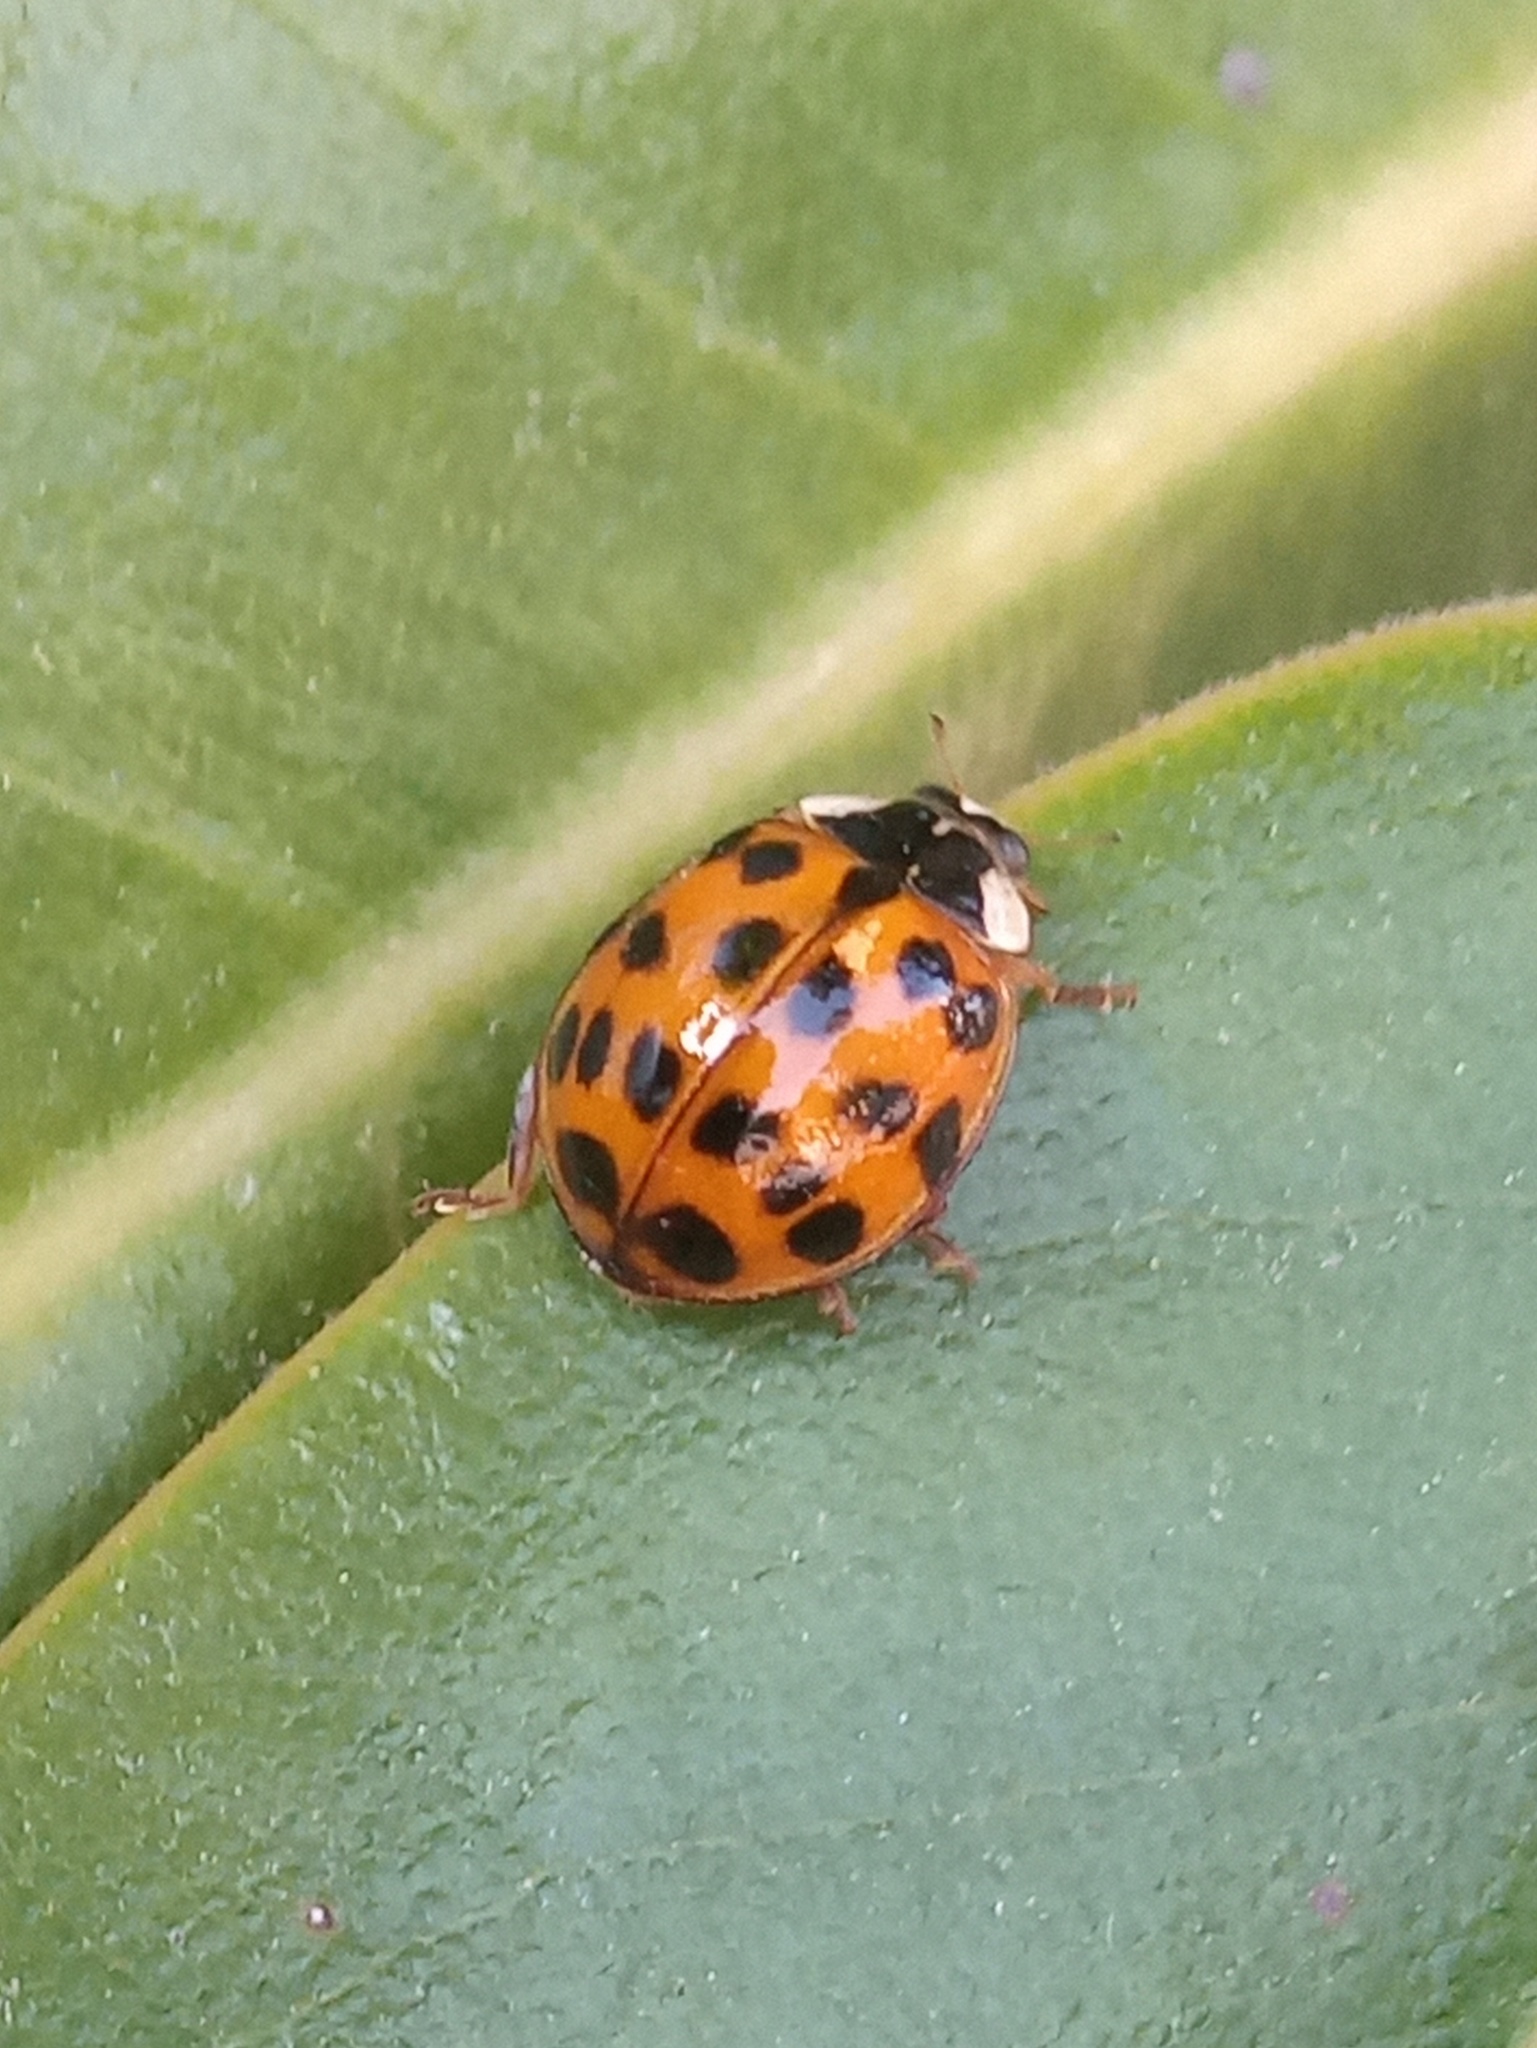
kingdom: Animalia
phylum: Arthropoda
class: Insecta
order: Coleoptera
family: Coccinellidae
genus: Harmonia
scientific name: Harmonia axyridis
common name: Harlequin ladybird
